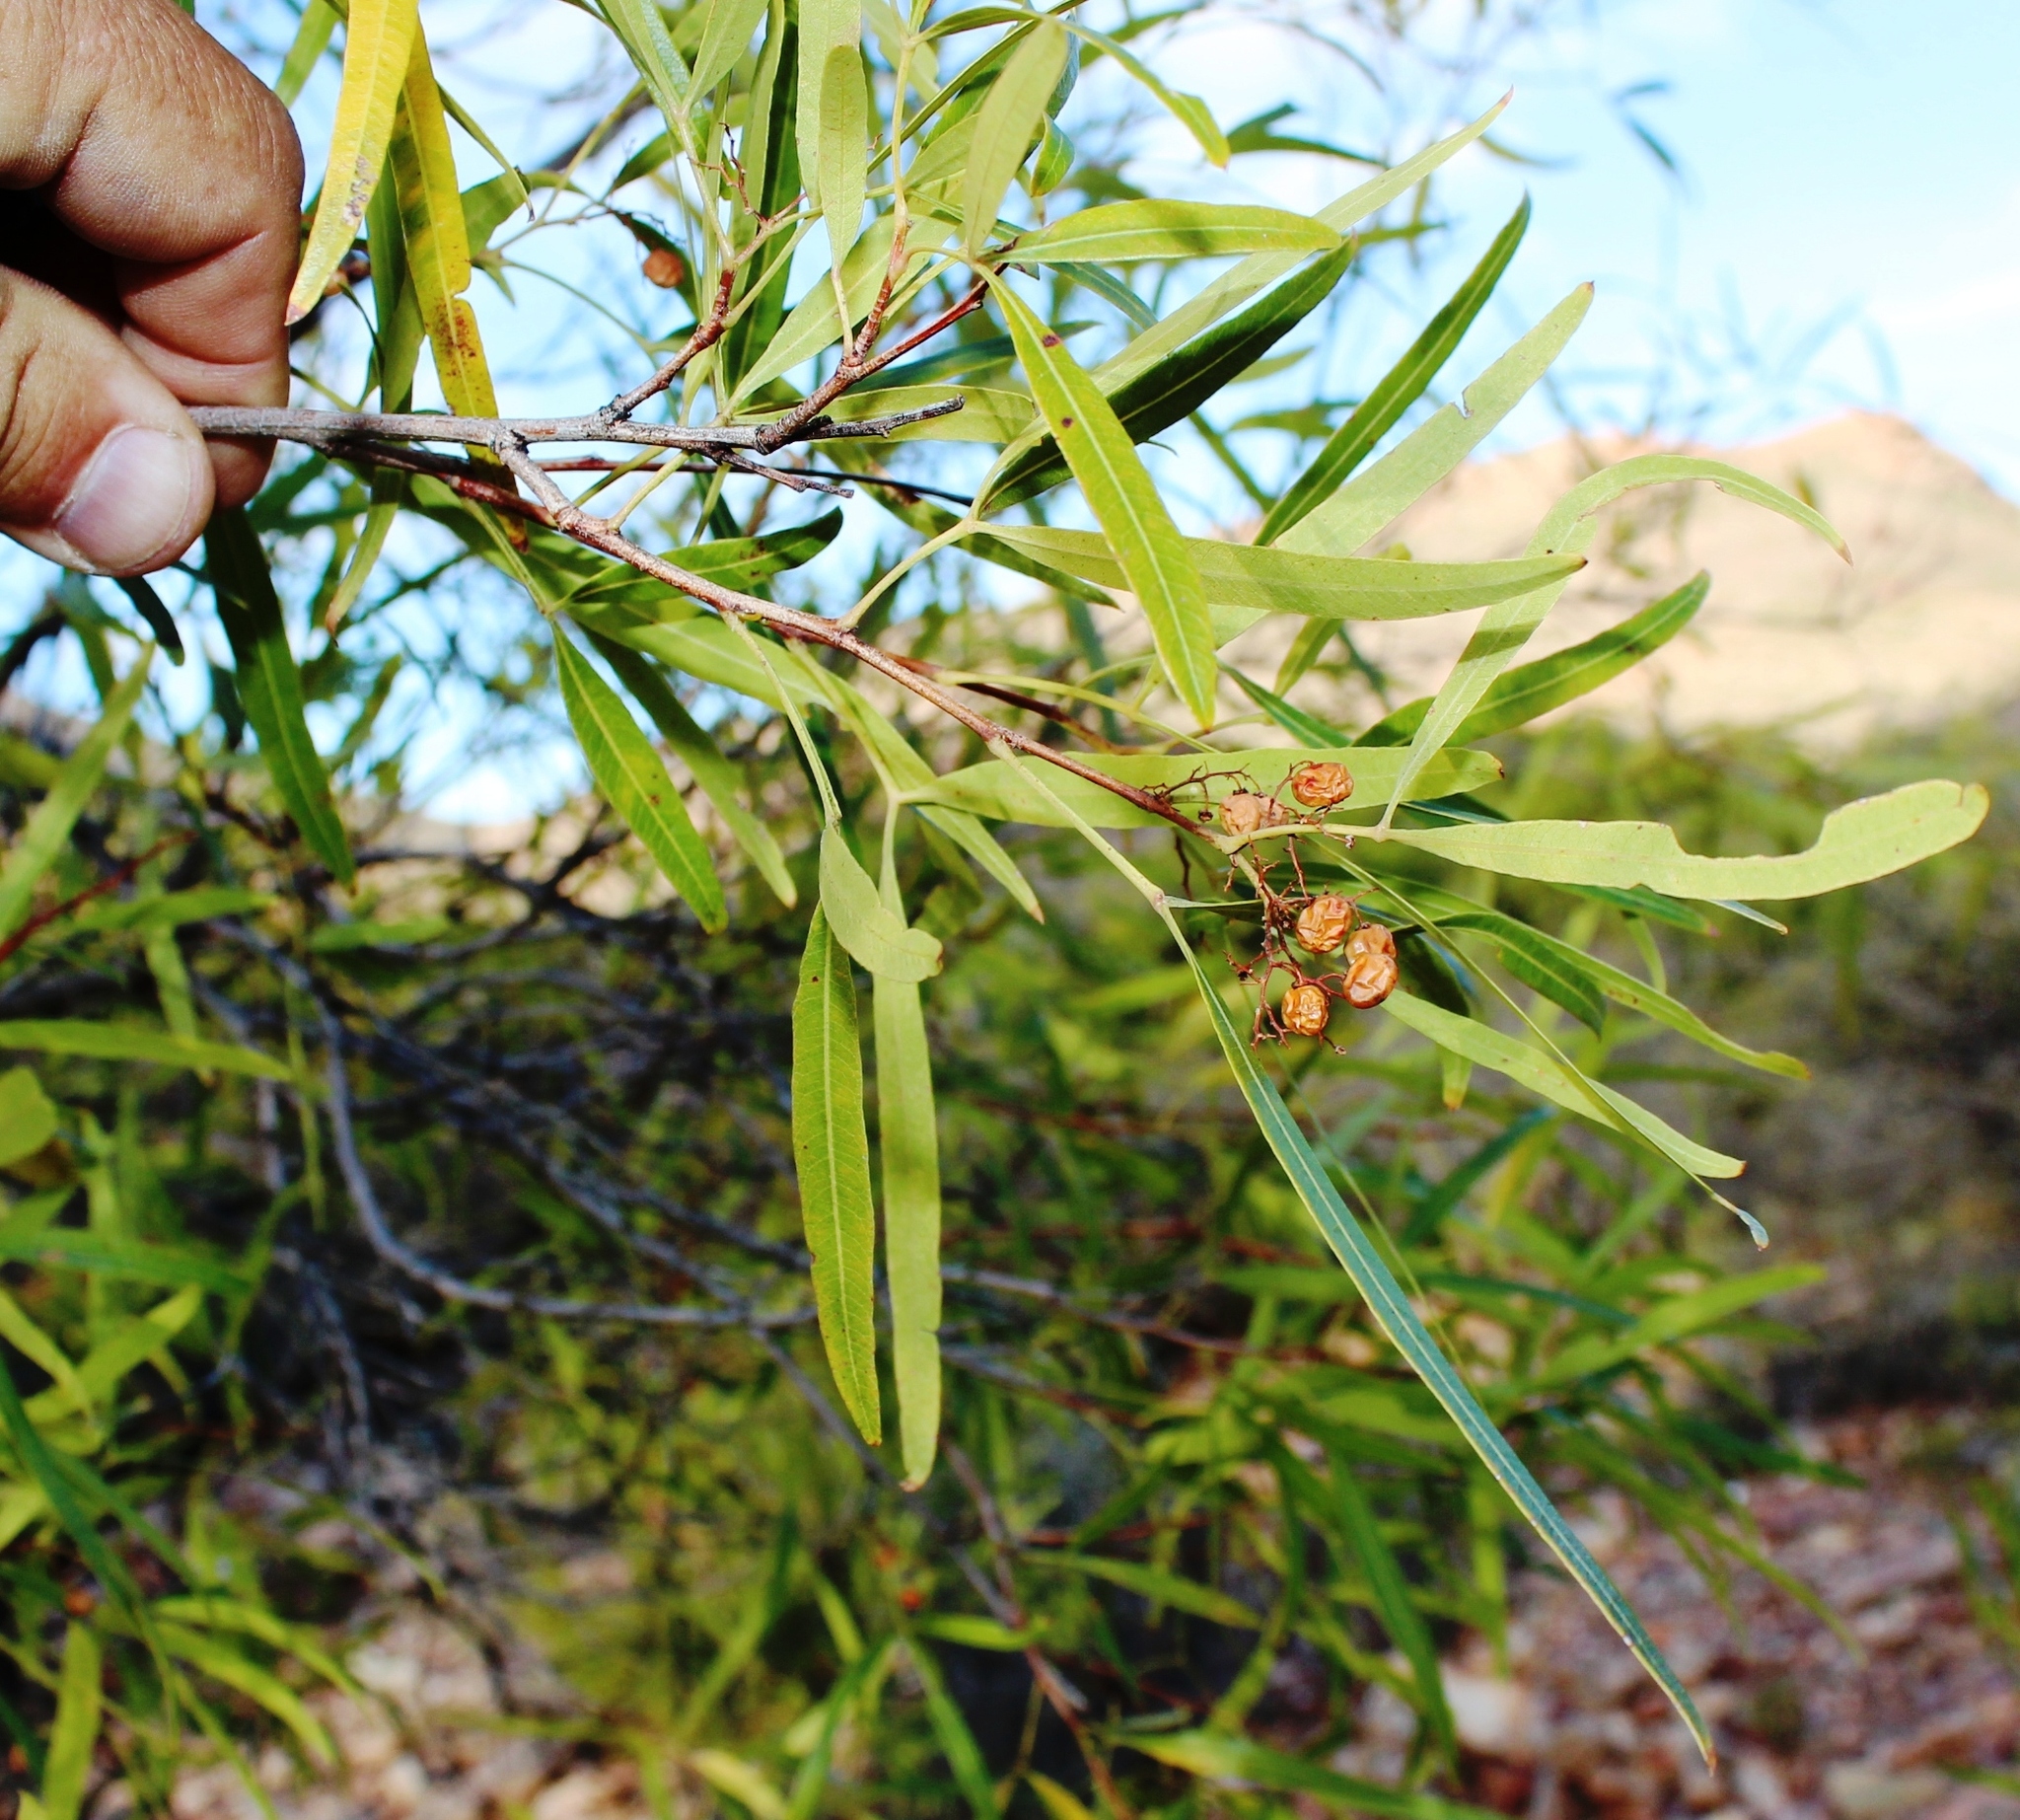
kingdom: Plantae
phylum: Tracheophyta
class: Magnoliopsida
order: Sapindales
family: Anacardiaceae
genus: Searsia
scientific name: Searsia lancea
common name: Cashew
